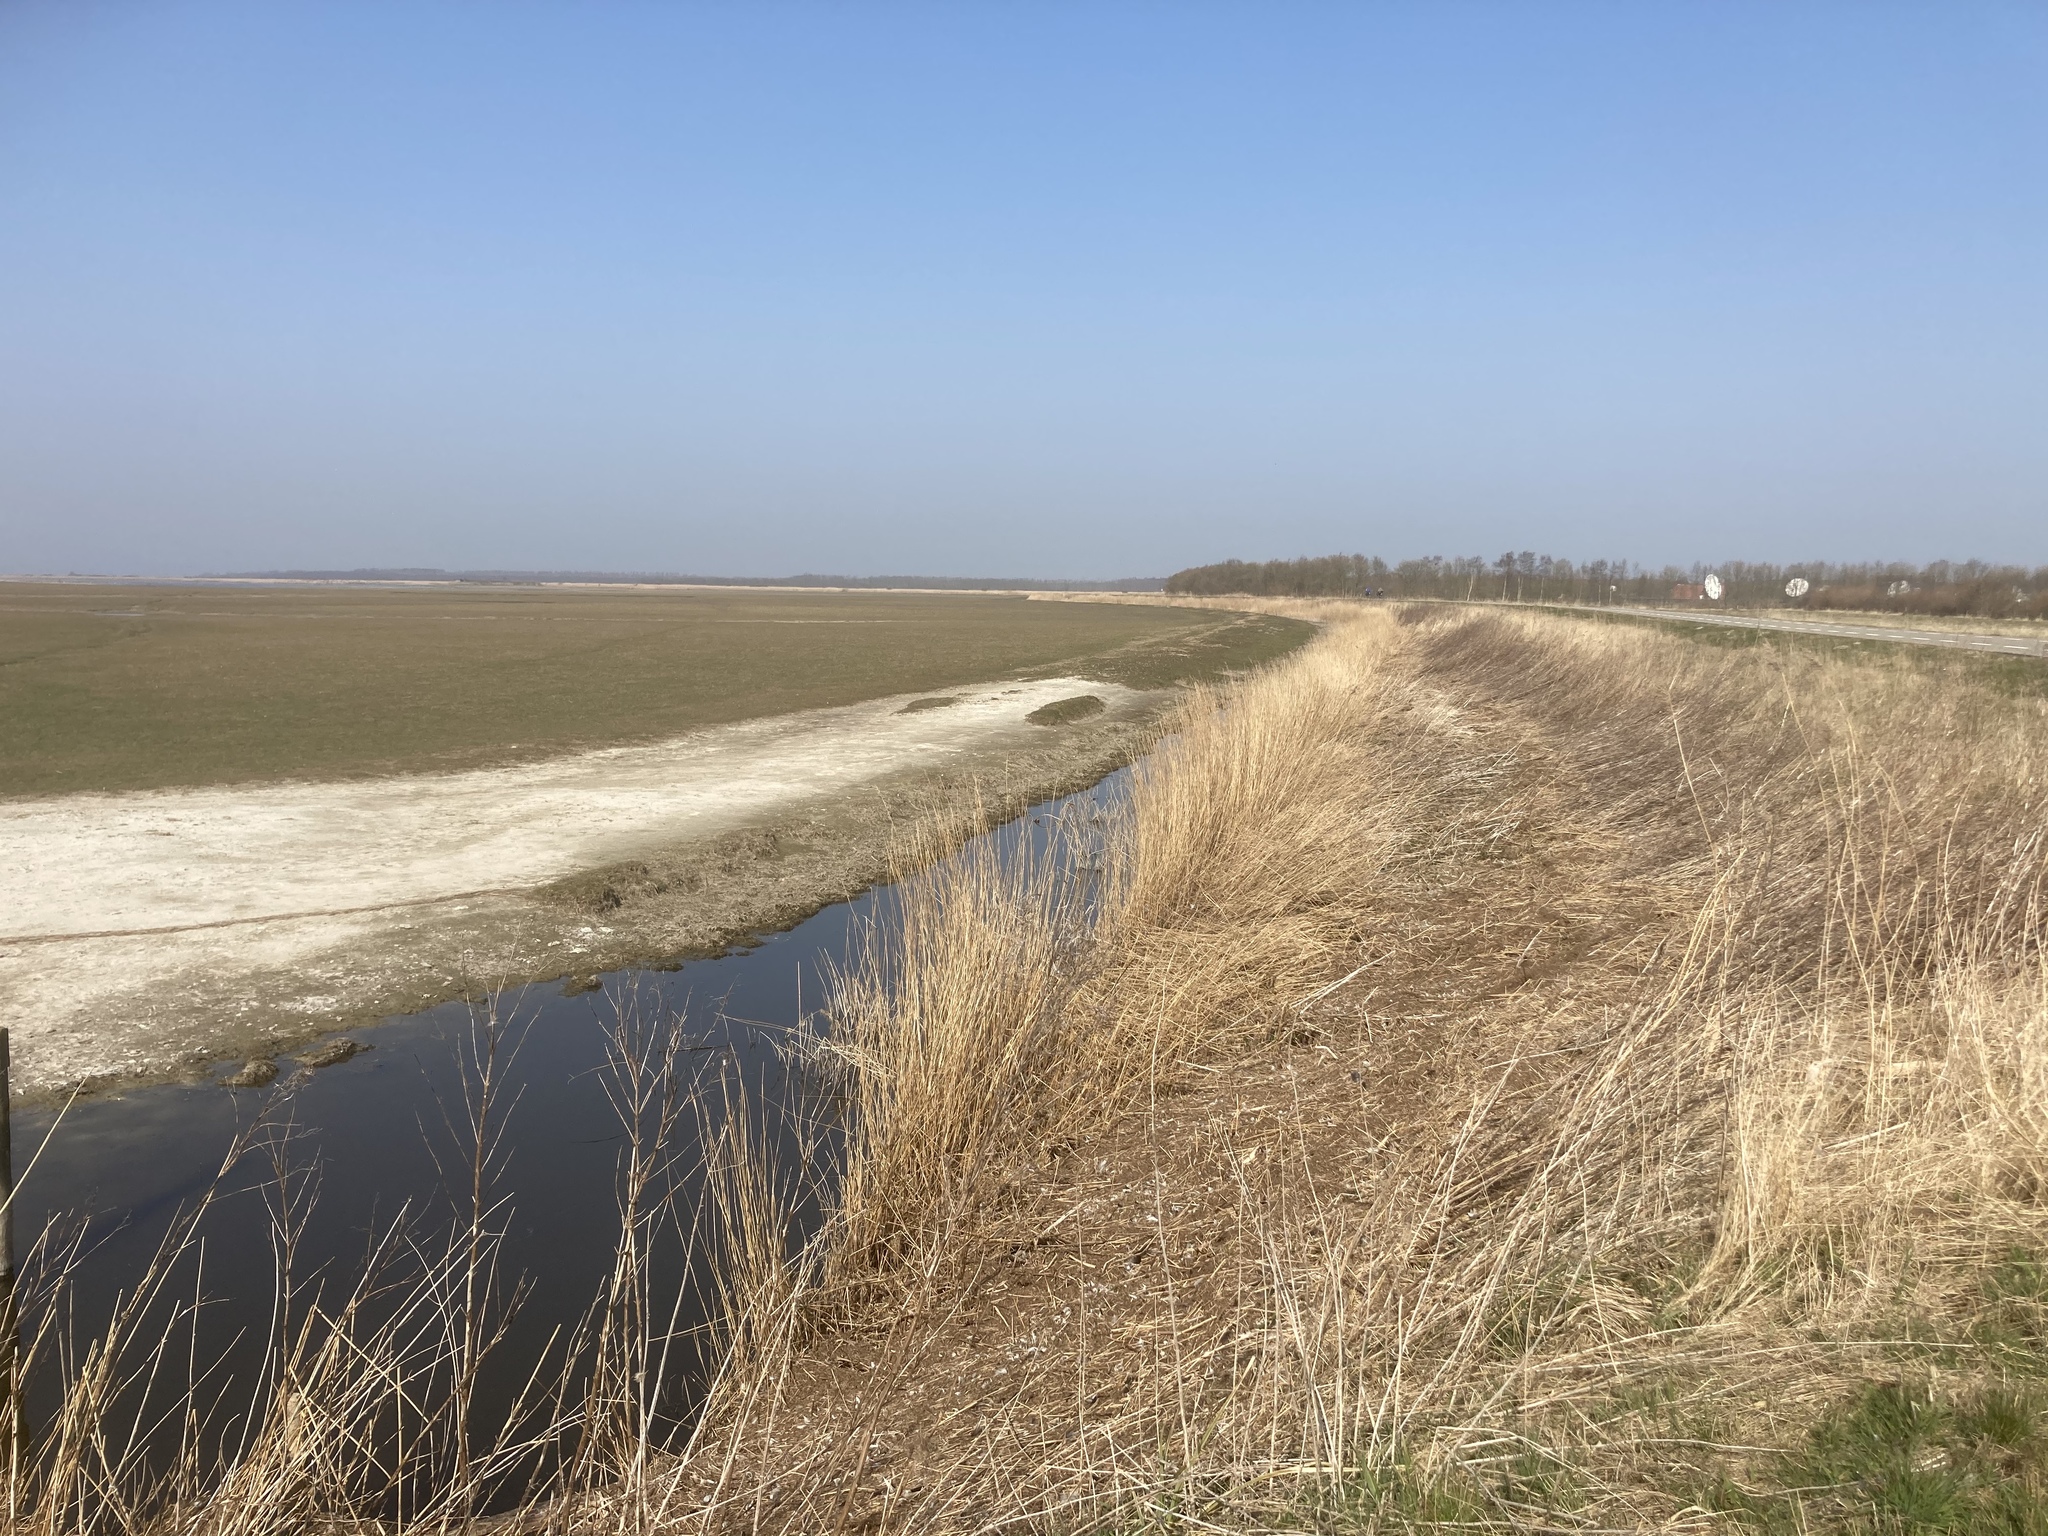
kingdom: Plantae
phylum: Tracheophyta
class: Liliopsida
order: Poales
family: Poaceae
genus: Phragmites
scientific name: Phragmites australis
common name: Common reed
